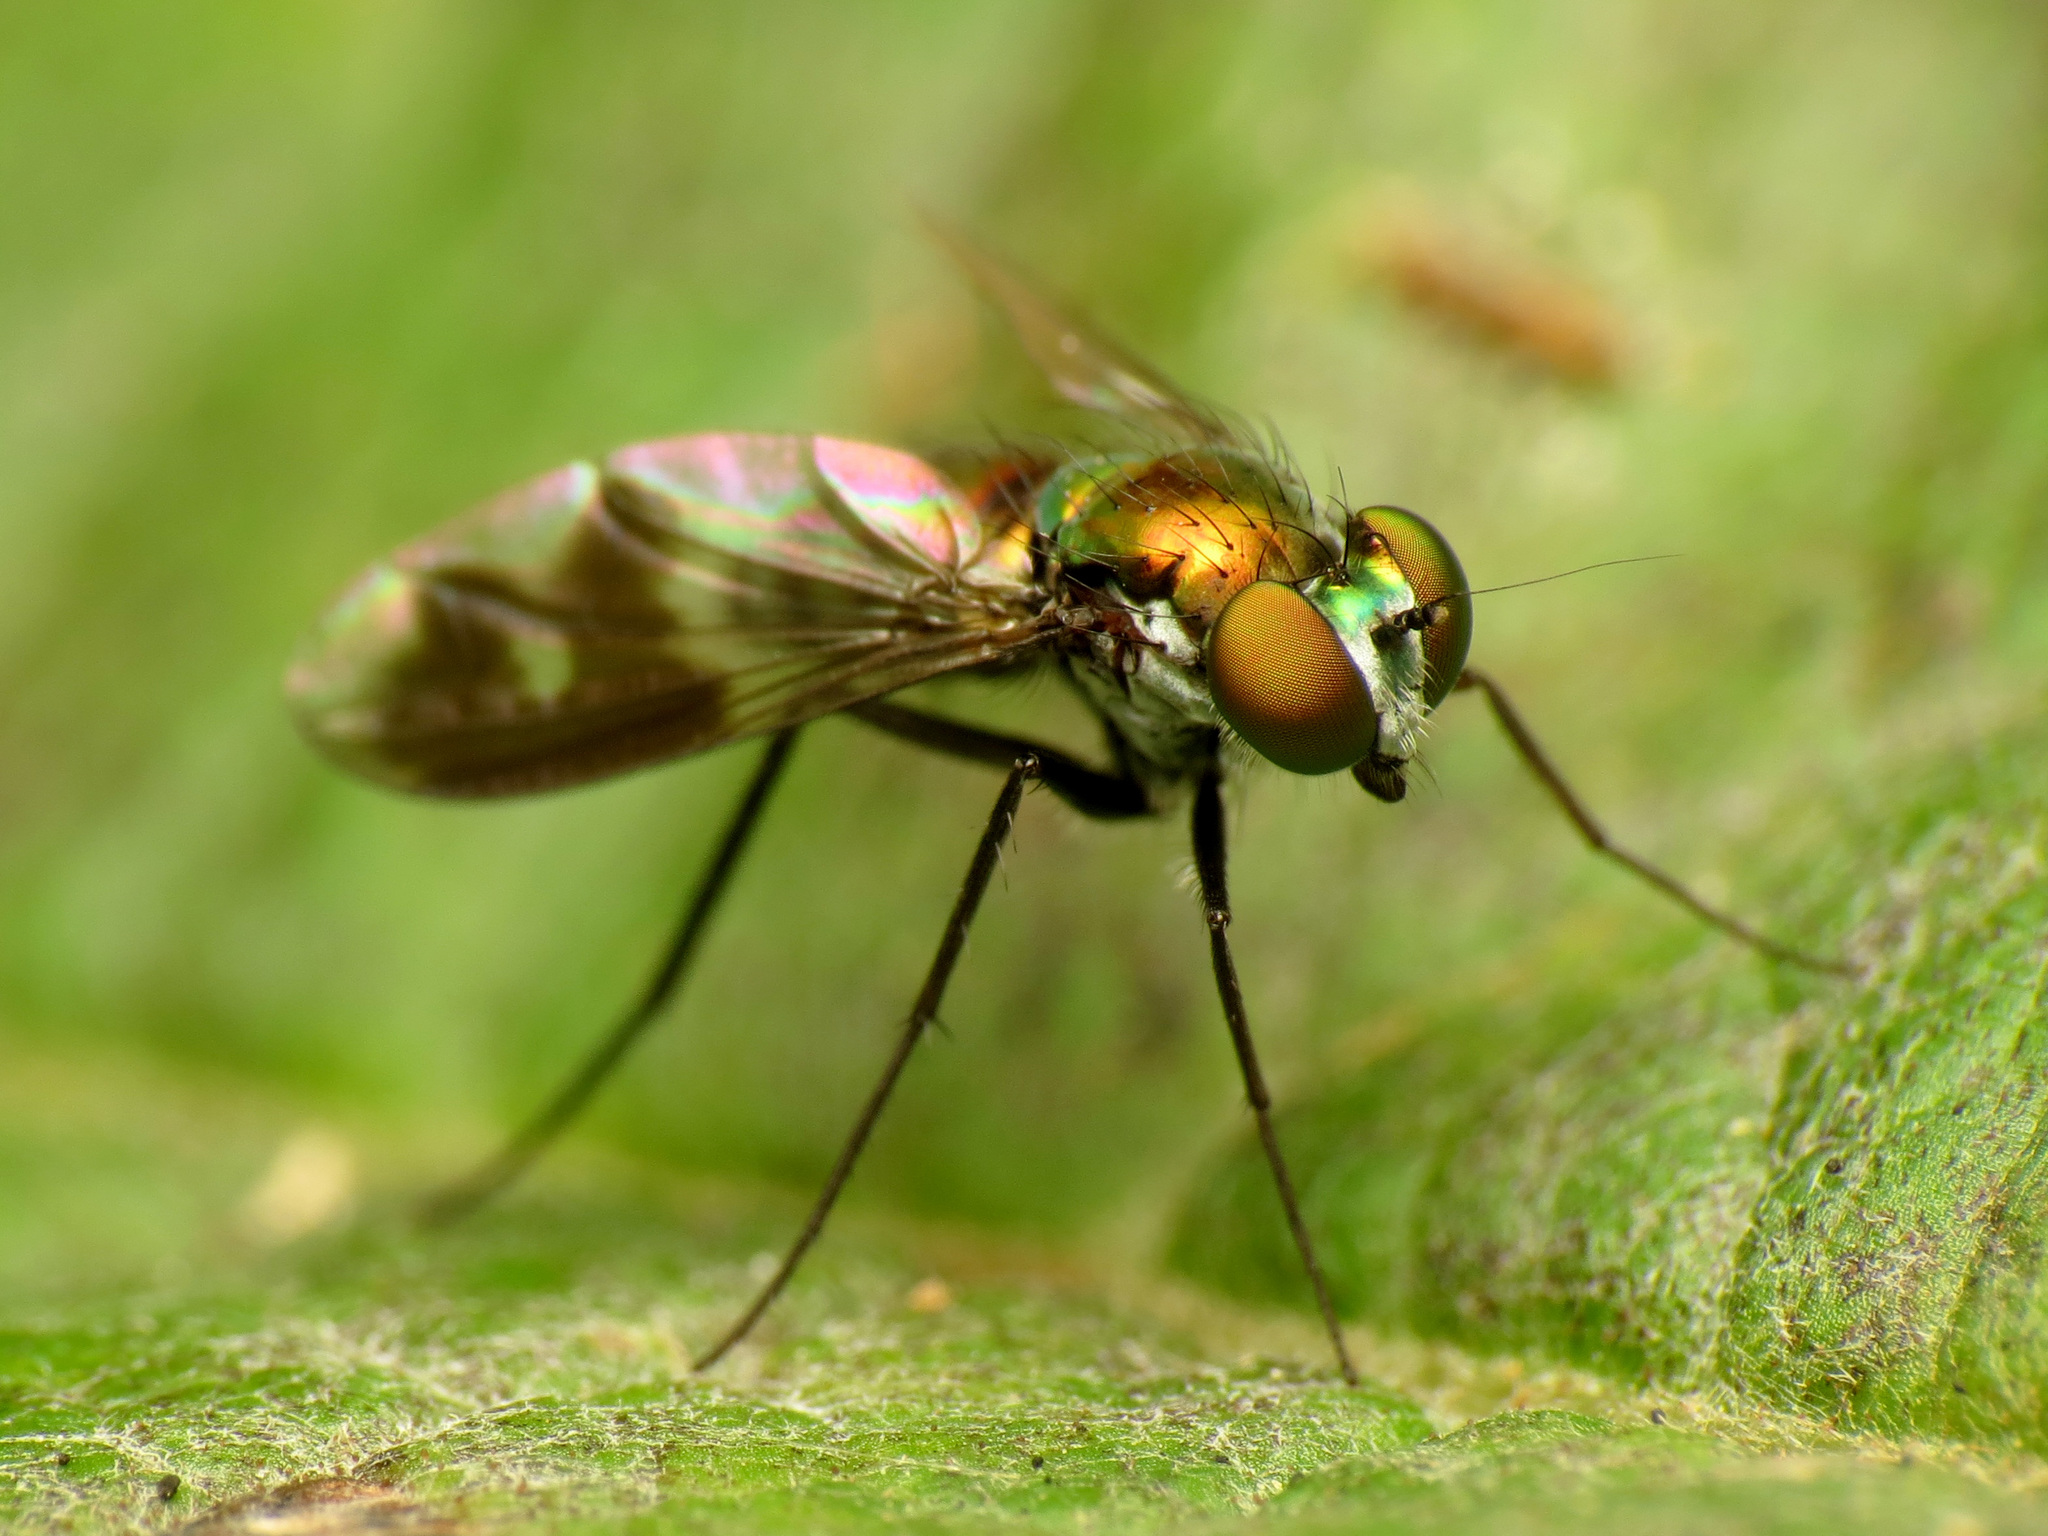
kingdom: Animalia
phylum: Arthropoda
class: Insecta
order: Diptera
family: Dolichopodidae
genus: Condylostylus
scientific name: Condylostylus patibulatus
